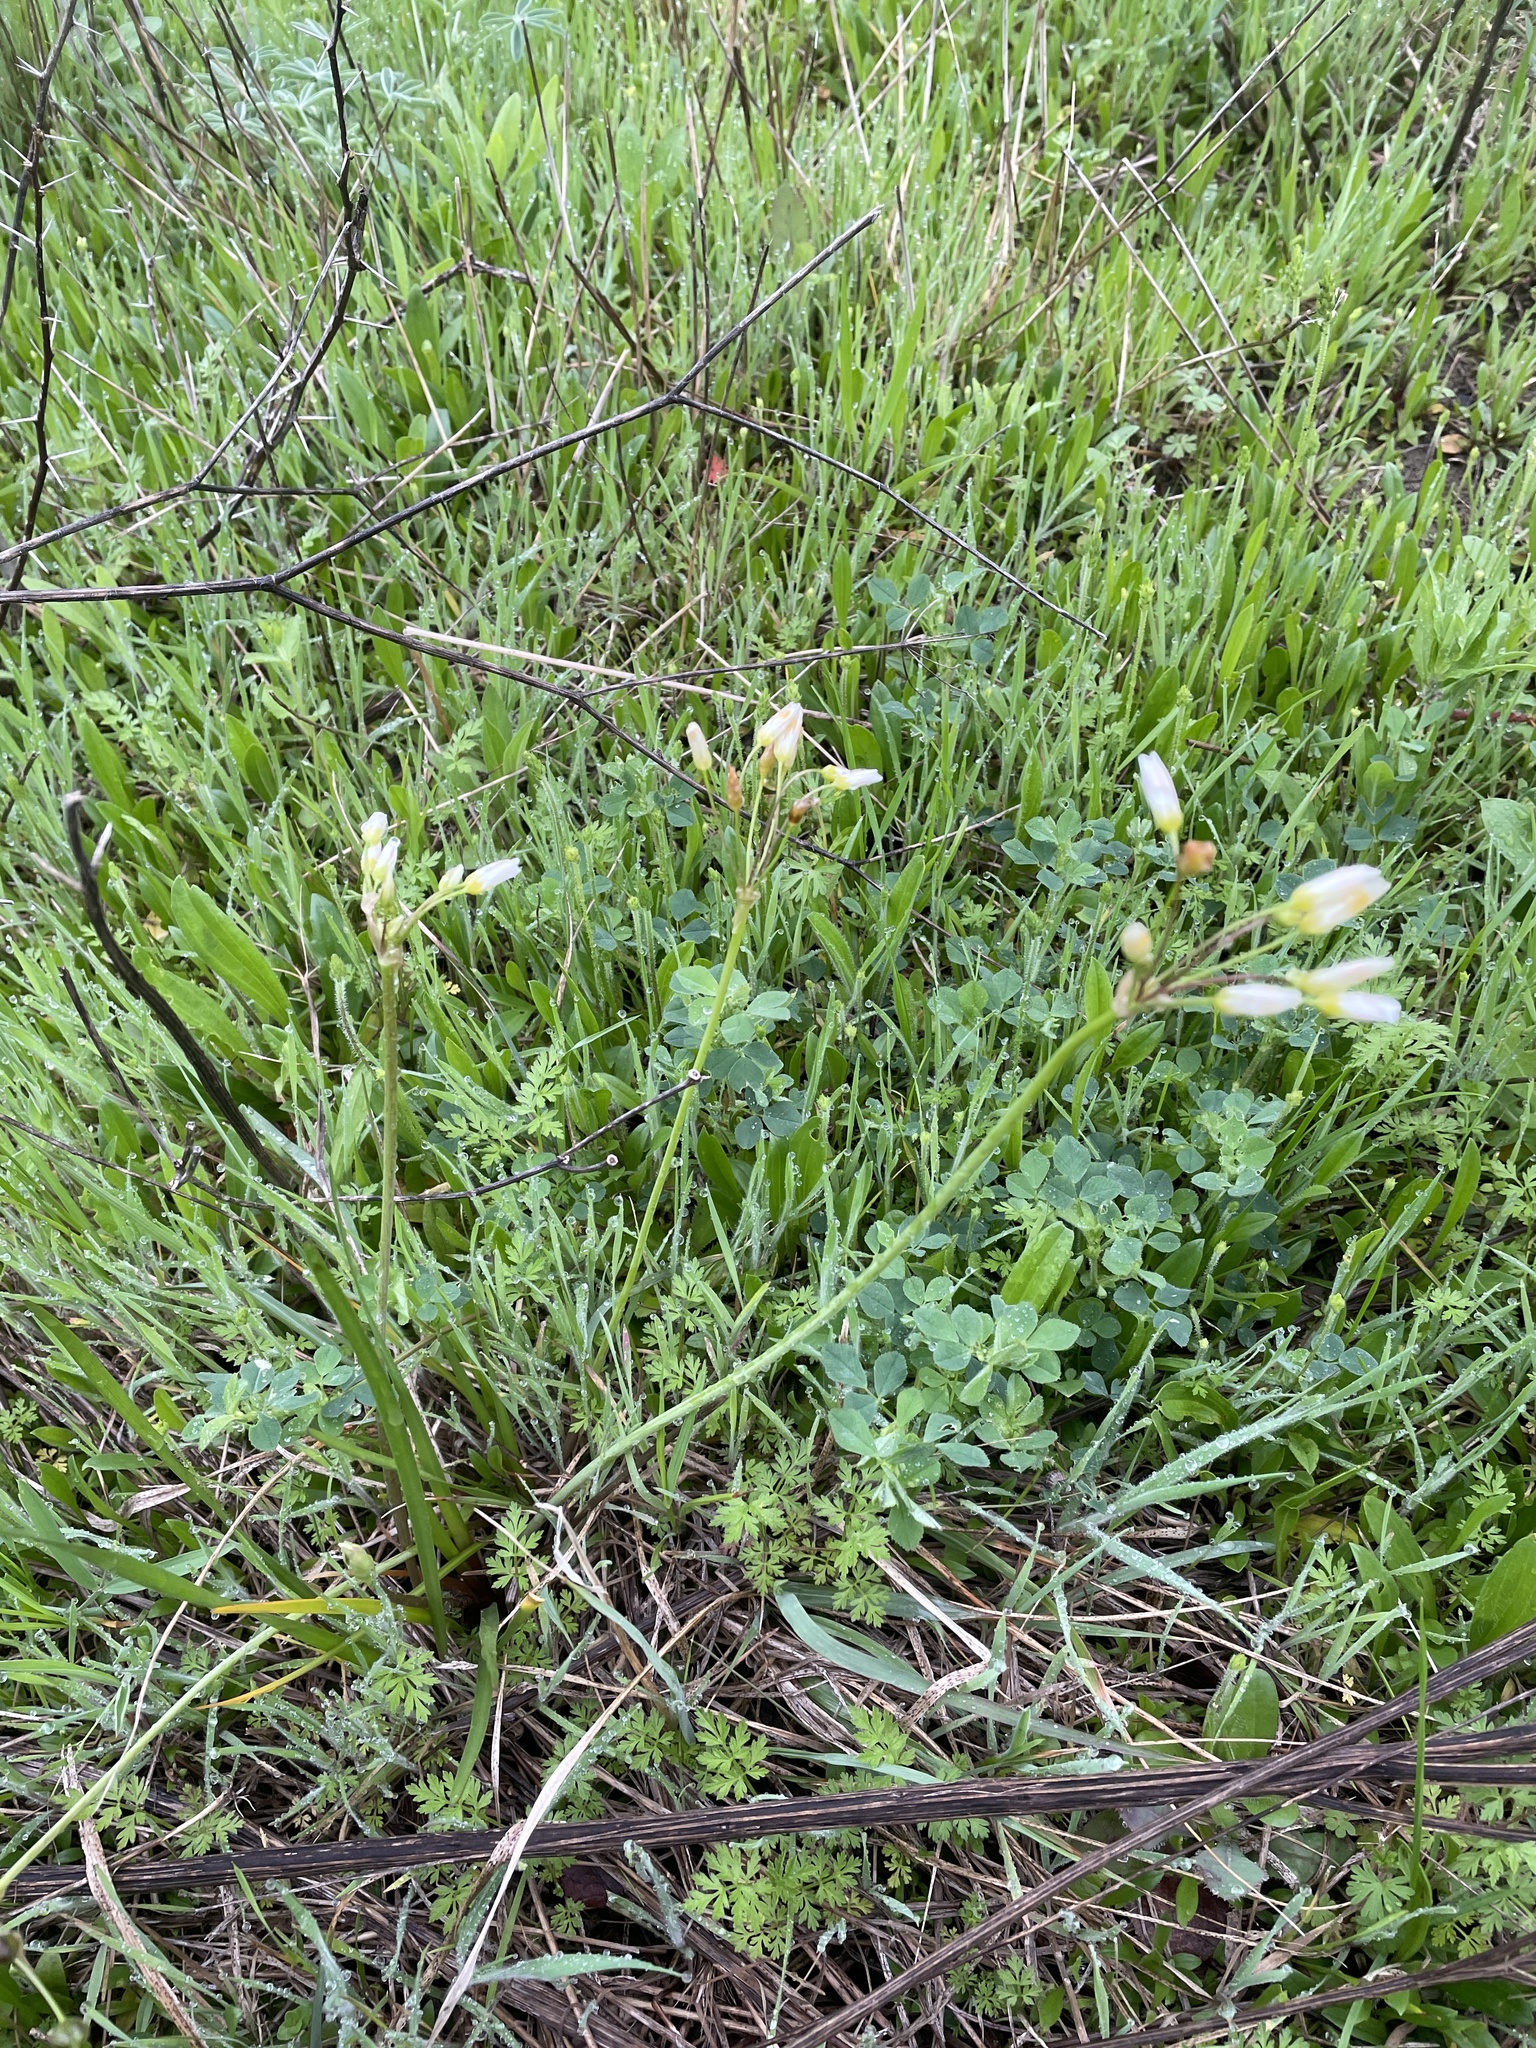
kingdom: Plantae
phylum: Tracheophyta
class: Liliopsida
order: Asparagales
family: Amaryllidaceae
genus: Nothoscordum
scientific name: Nothoscordum bivalve
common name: Crow-poison
